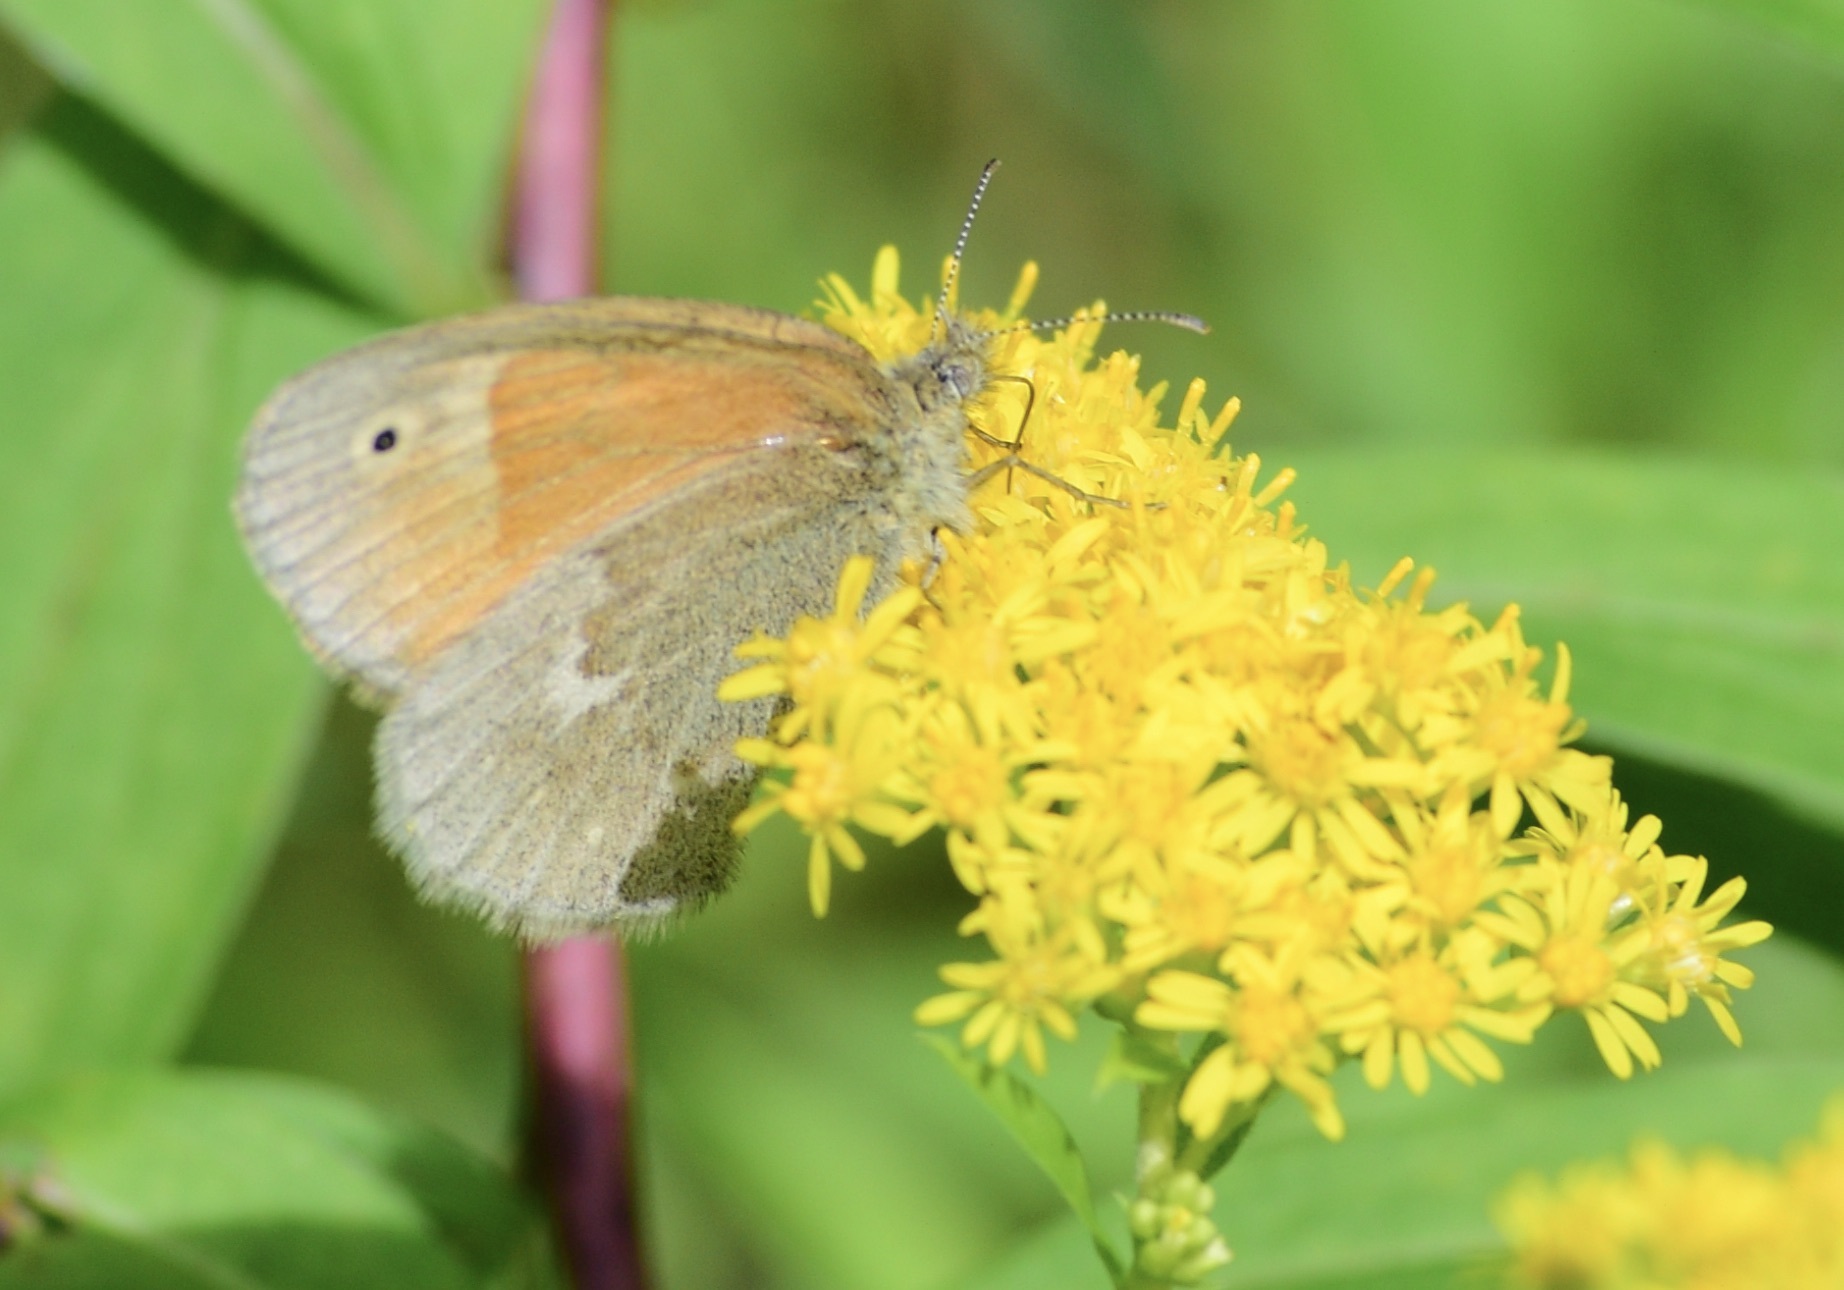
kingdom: Animalia
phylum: Arthropoda
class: Insecta
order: Lepidoptera
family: Nymphalidae
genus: Coenonympha
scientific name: Coenonympha california
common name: Common ringlet
